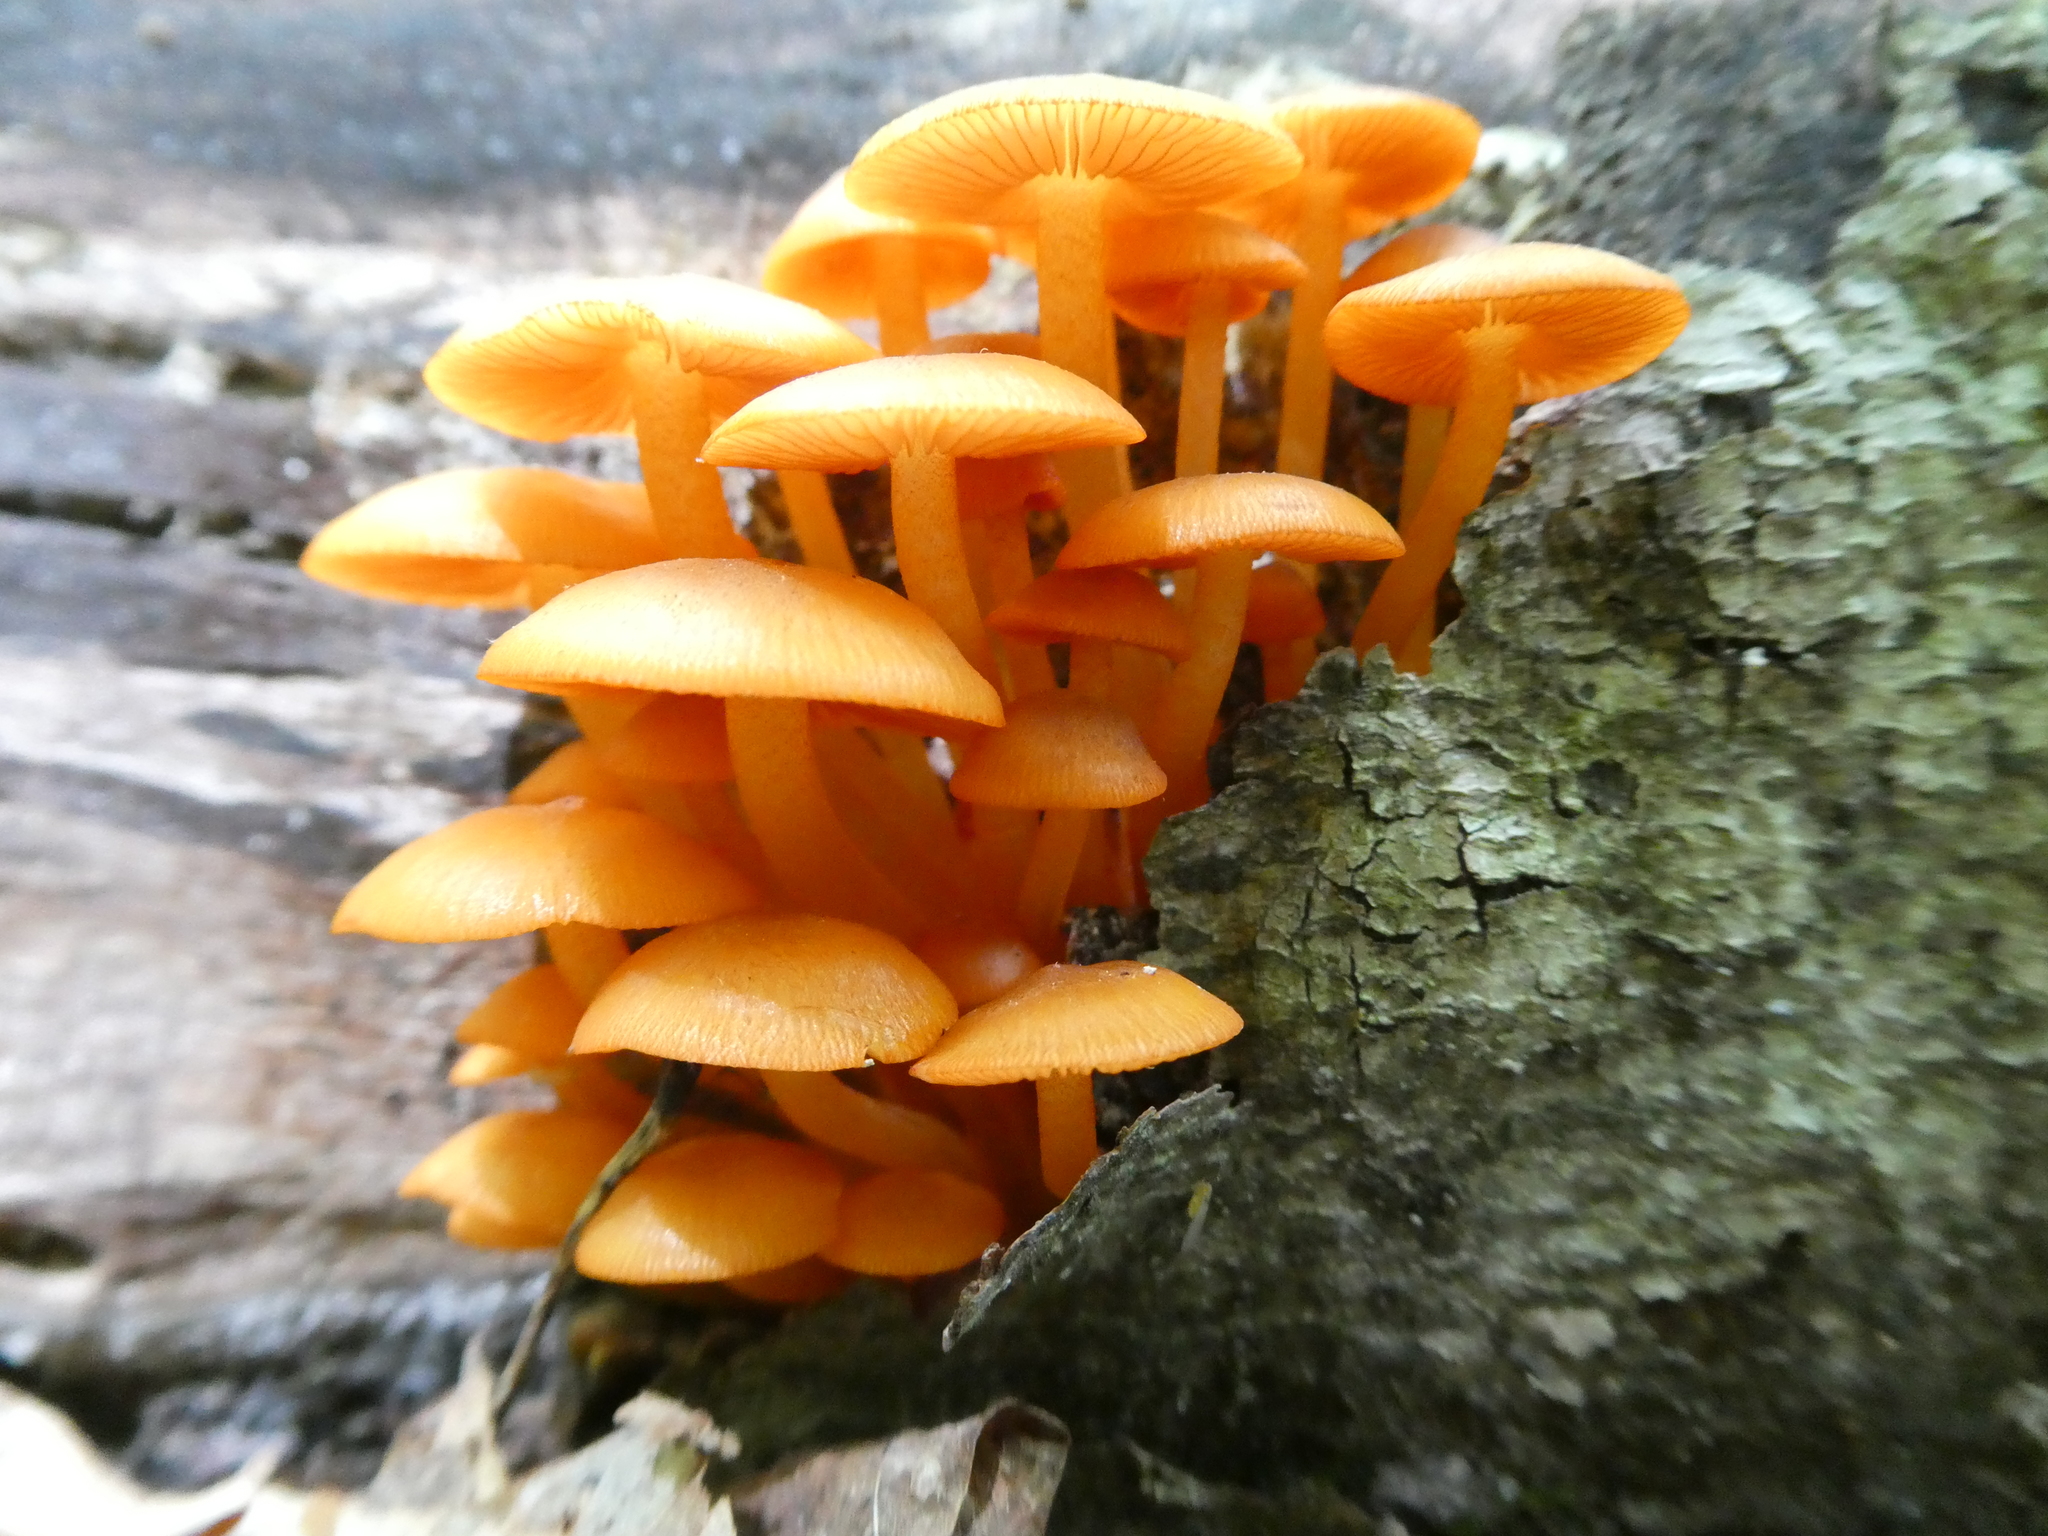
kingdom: Fungi
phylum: Basidiomycota
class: Agaricomycetes
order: Agaricales
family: Mycenaceae
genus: Mycena
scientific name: Mycena leaiana
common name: Orange mycena
